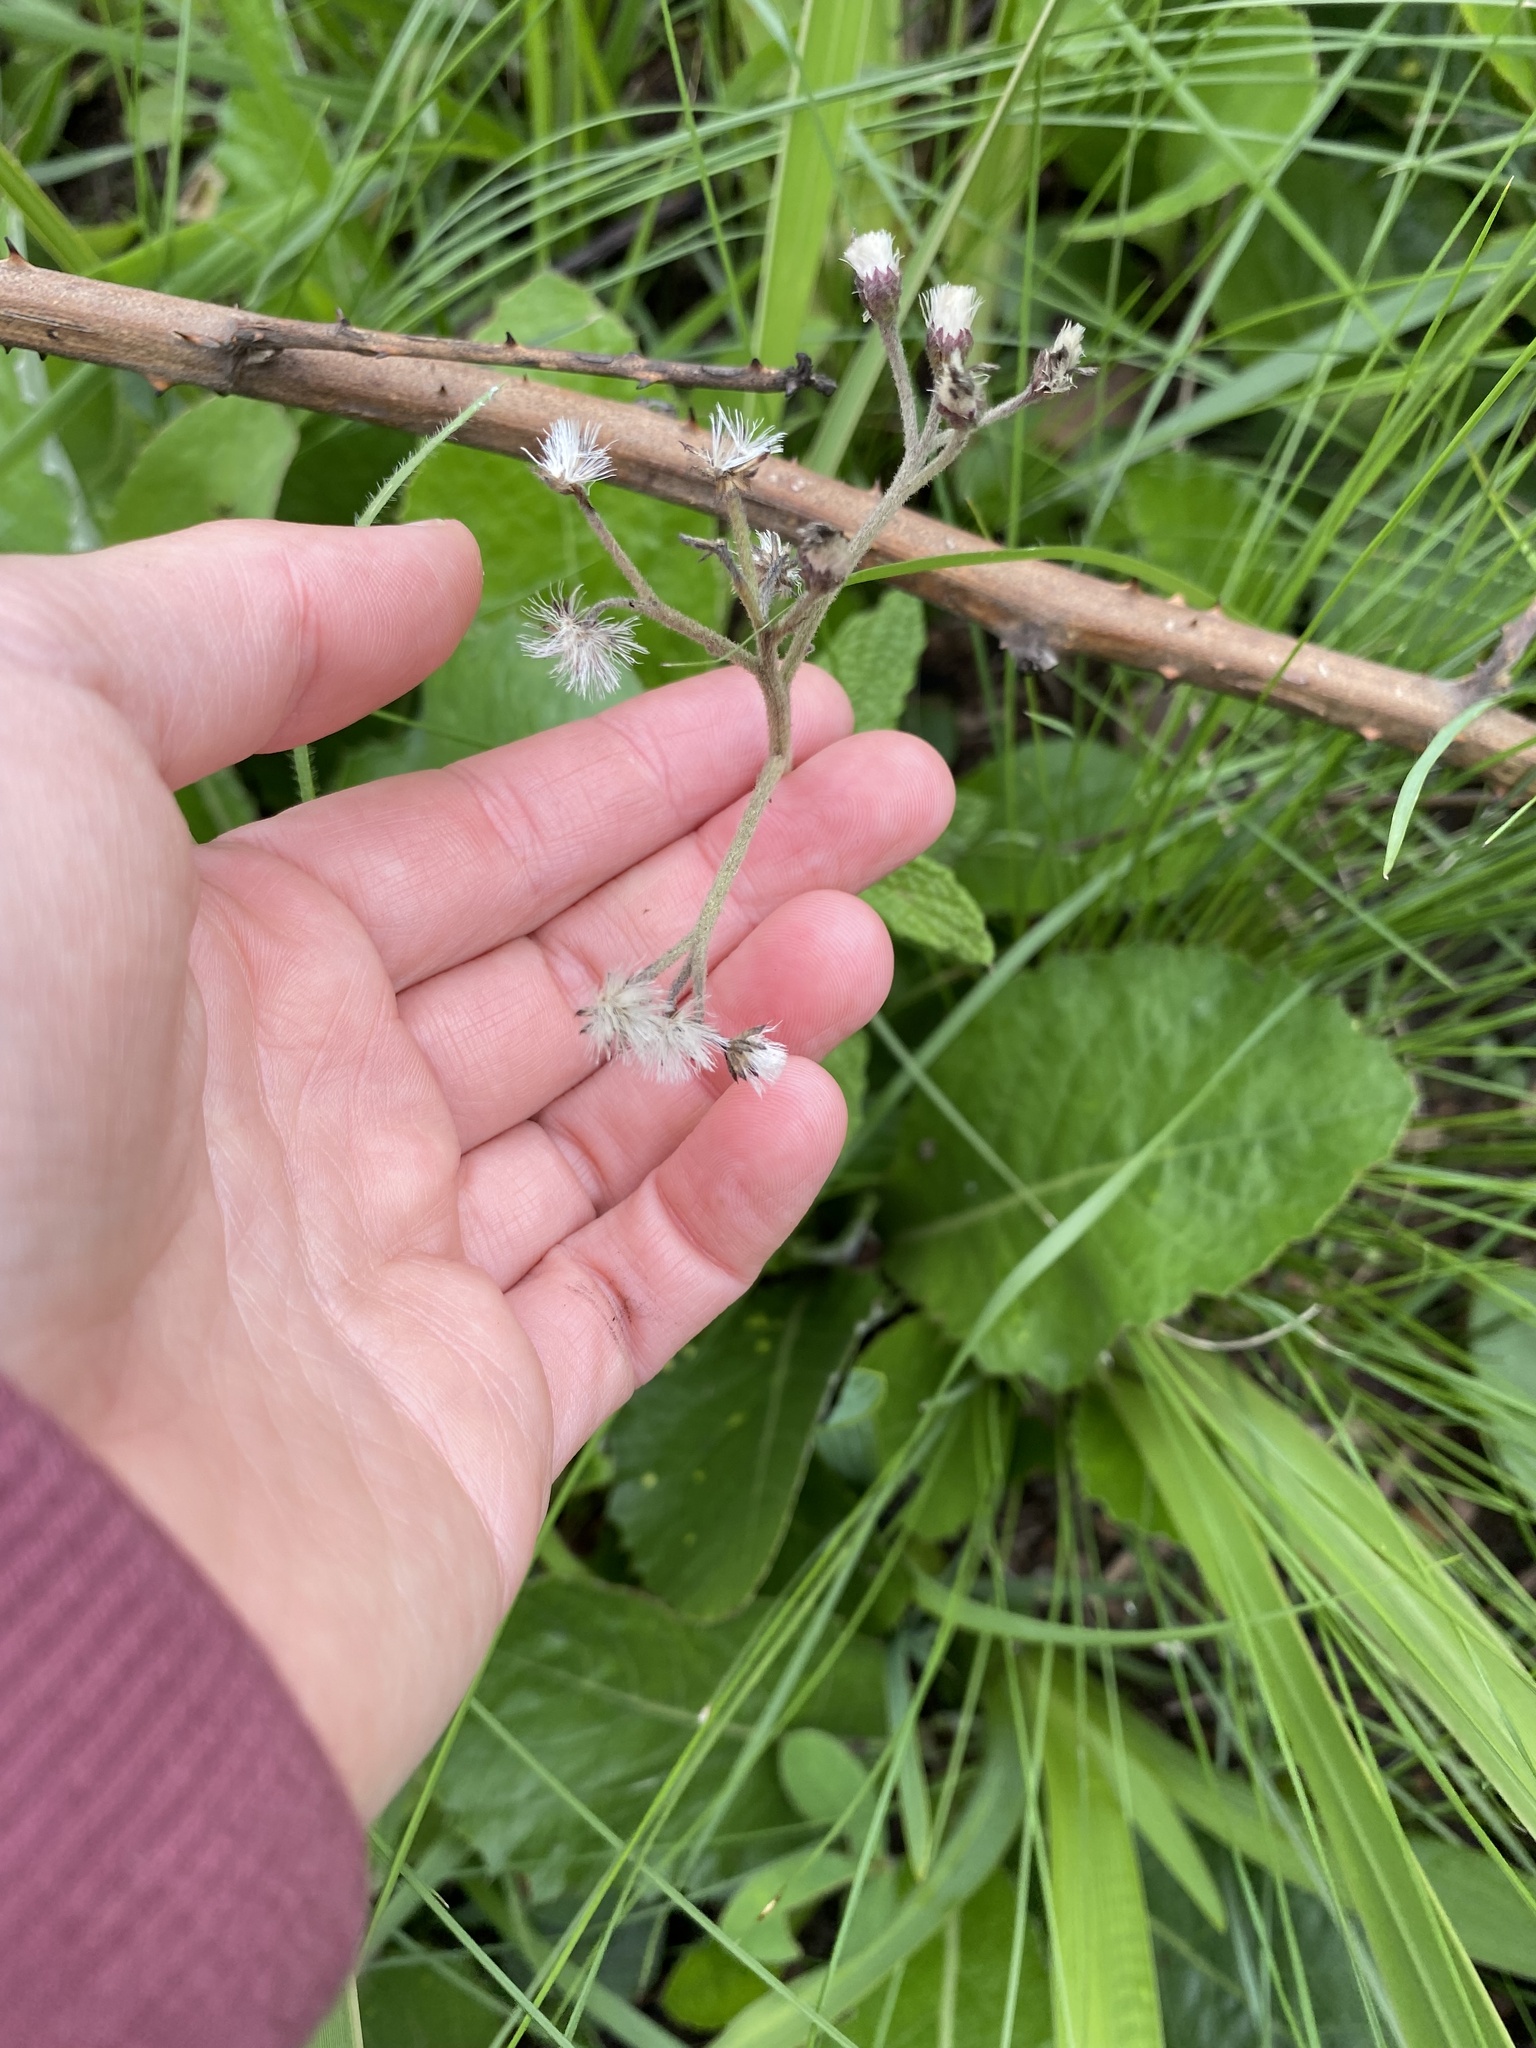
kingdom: Plantae
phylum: Tracheophyta
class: Magnoliopsida
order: Asterales
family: Asteraceae
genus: Hilliardiella
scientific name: Hilliardiella hirsuta
